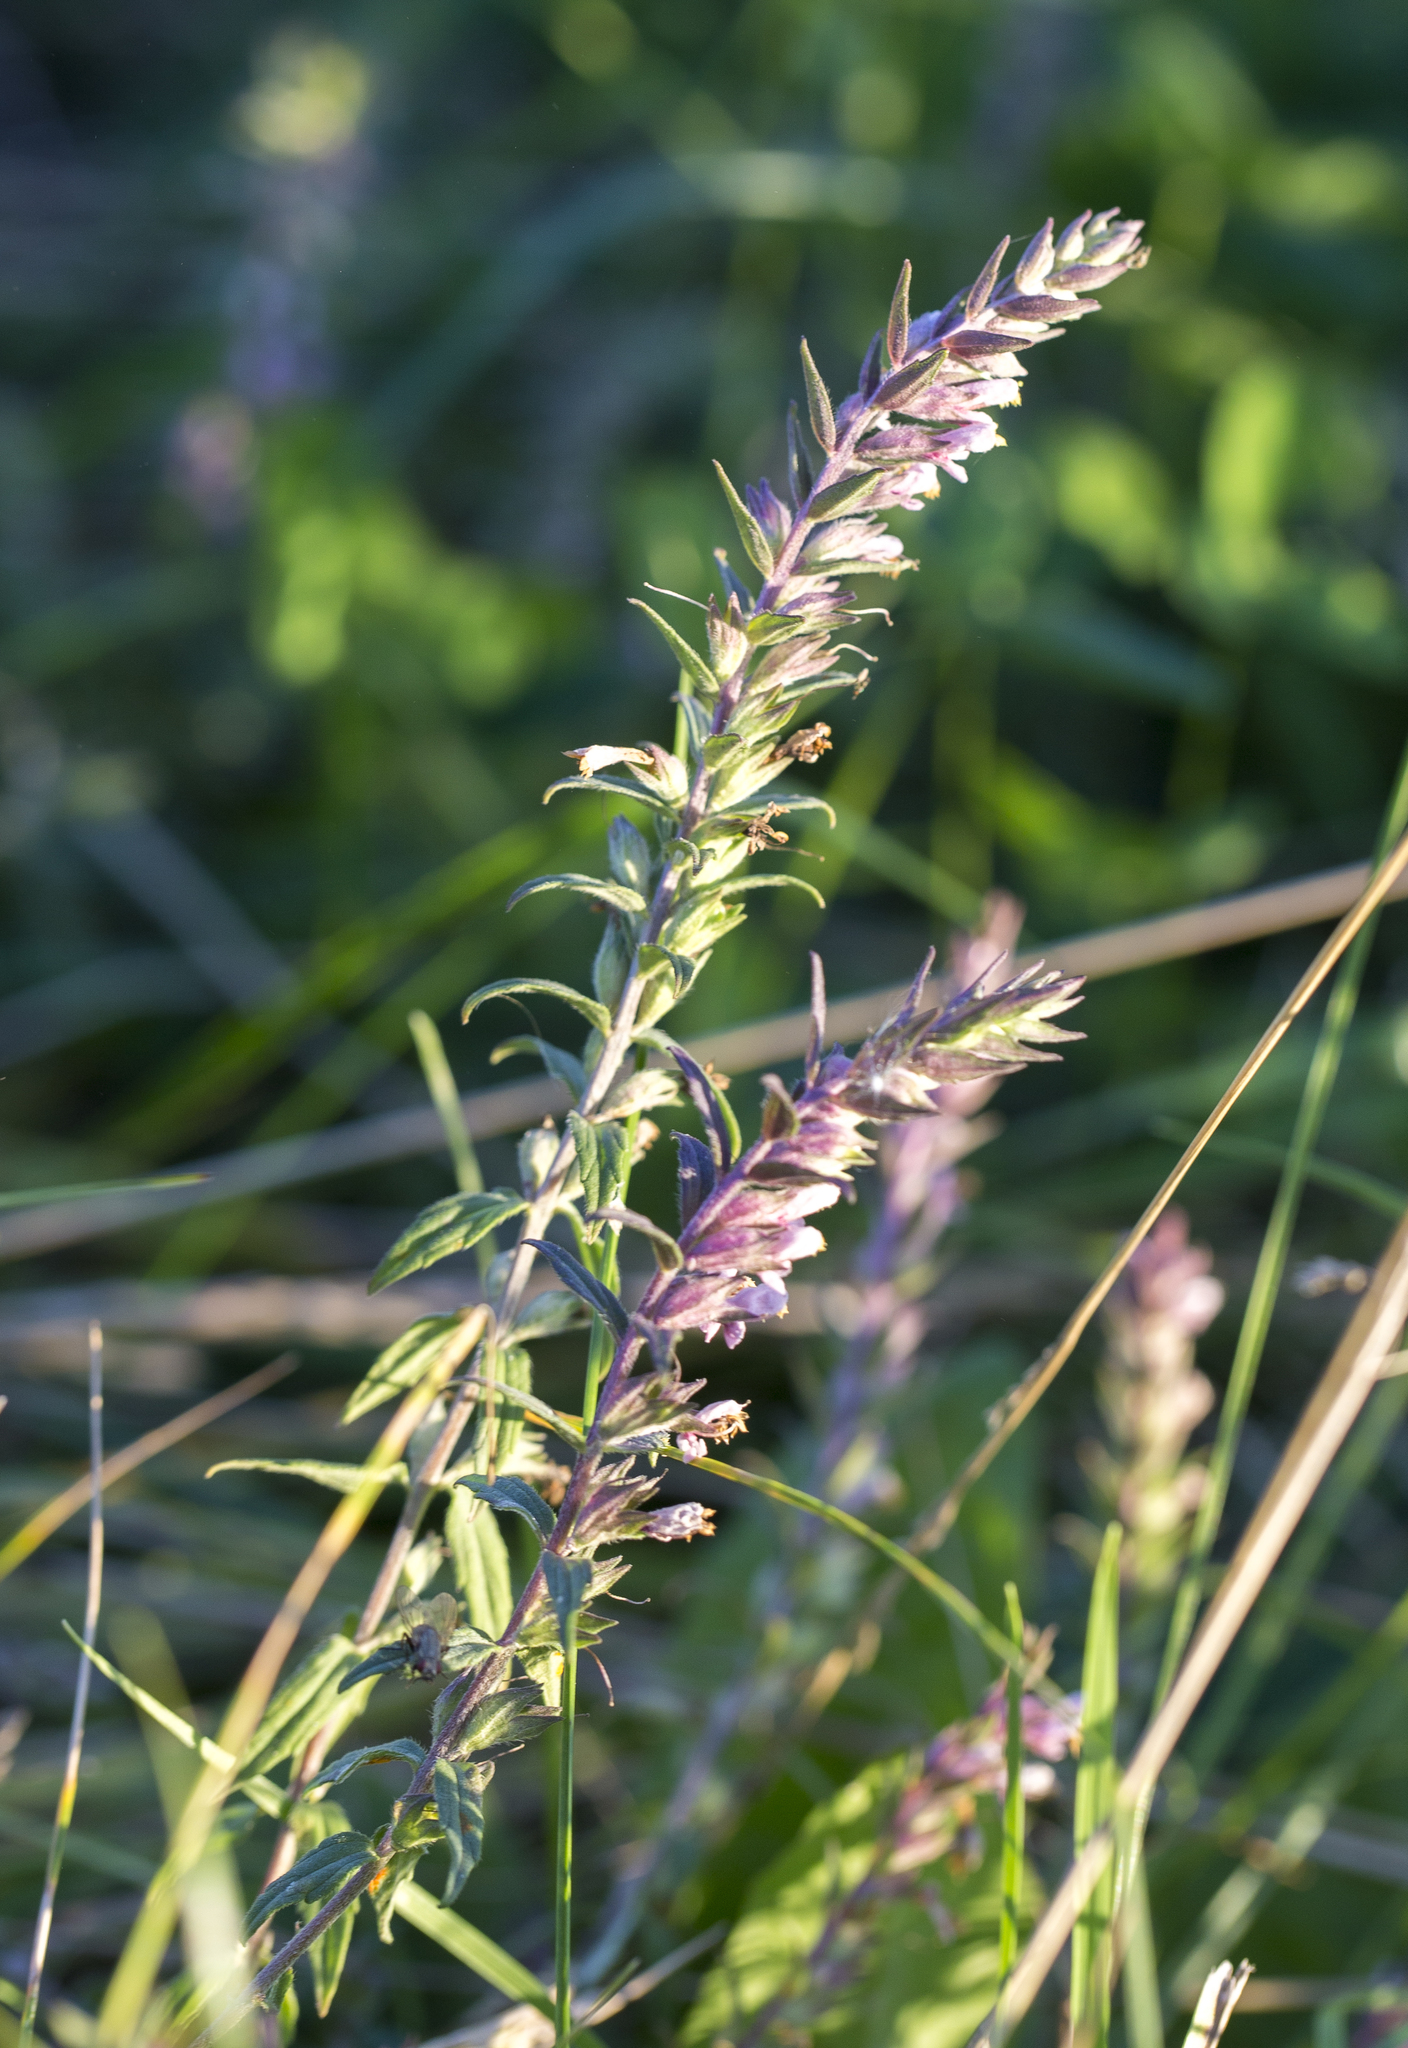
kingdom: Plantae
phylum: Tracheophyta
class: Magnoliopsida
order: Lamiales
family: Orobanchaceae
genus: Odontites
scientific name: Odontites vulgaris
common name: Broomrape
